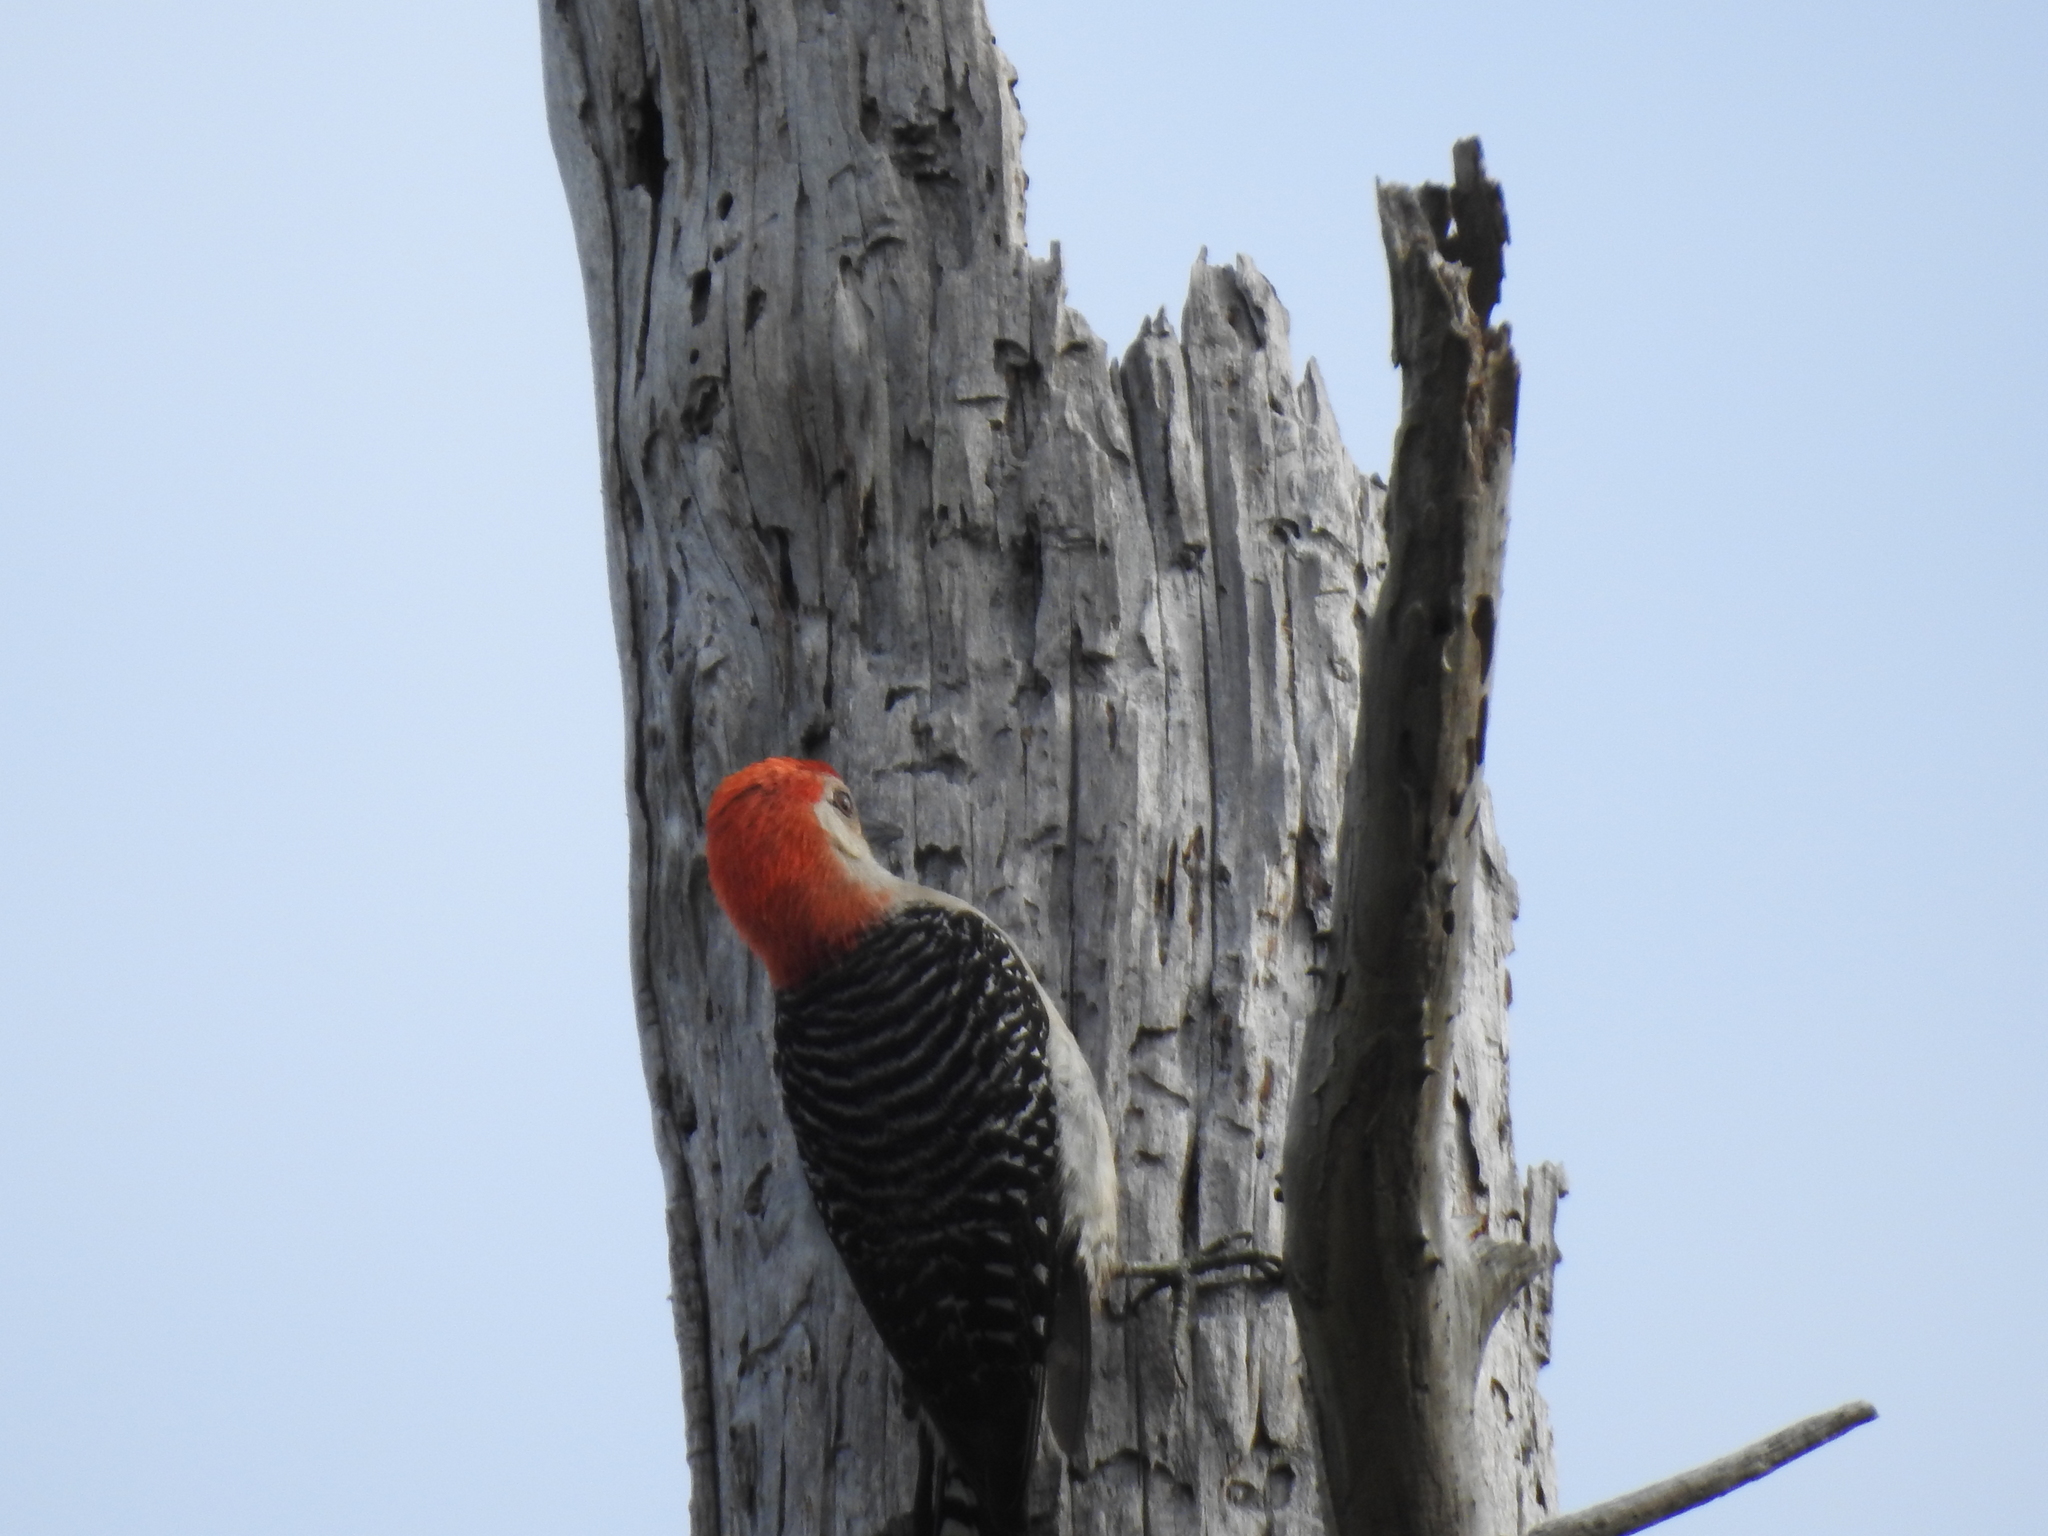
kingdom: Animalia
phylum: Chordata
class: Aves
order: Piciformes
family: Picidae
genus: Melanerpes
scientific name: Melanerpes carolinus
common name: Red-bellied woodpecker
